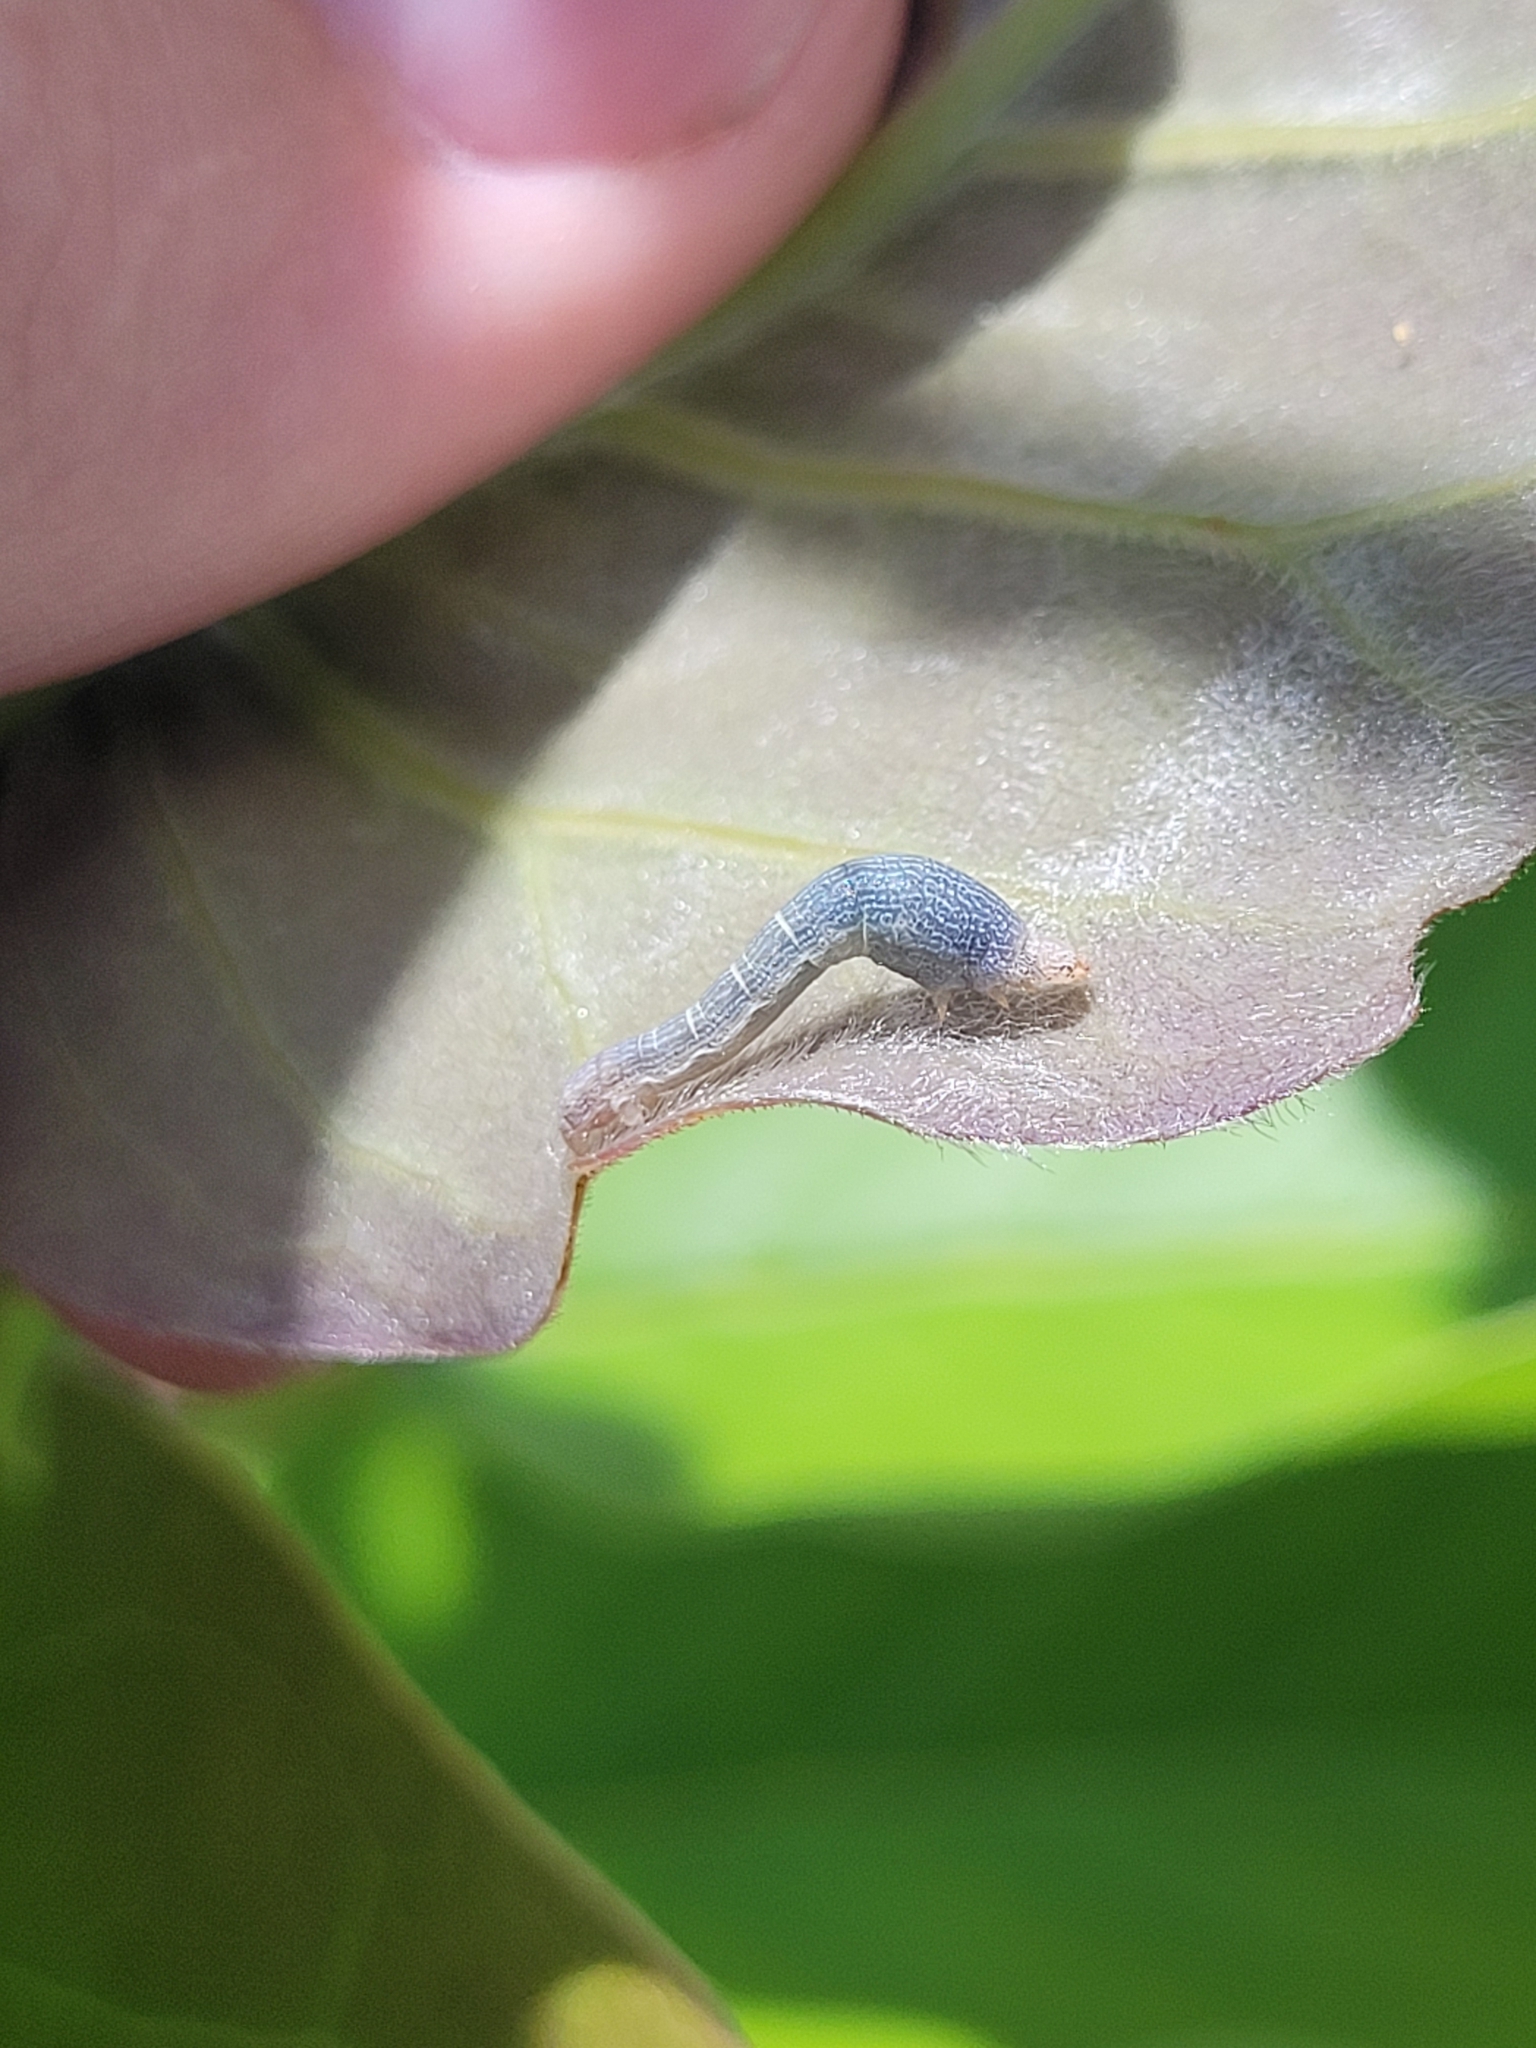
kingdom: Animalia
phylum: Arthropoda
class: Insecta
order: Lepidoptera
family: Geometridae
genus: Epimecis
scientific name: Epimecis hortaria
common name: Tulip-tree beauty
